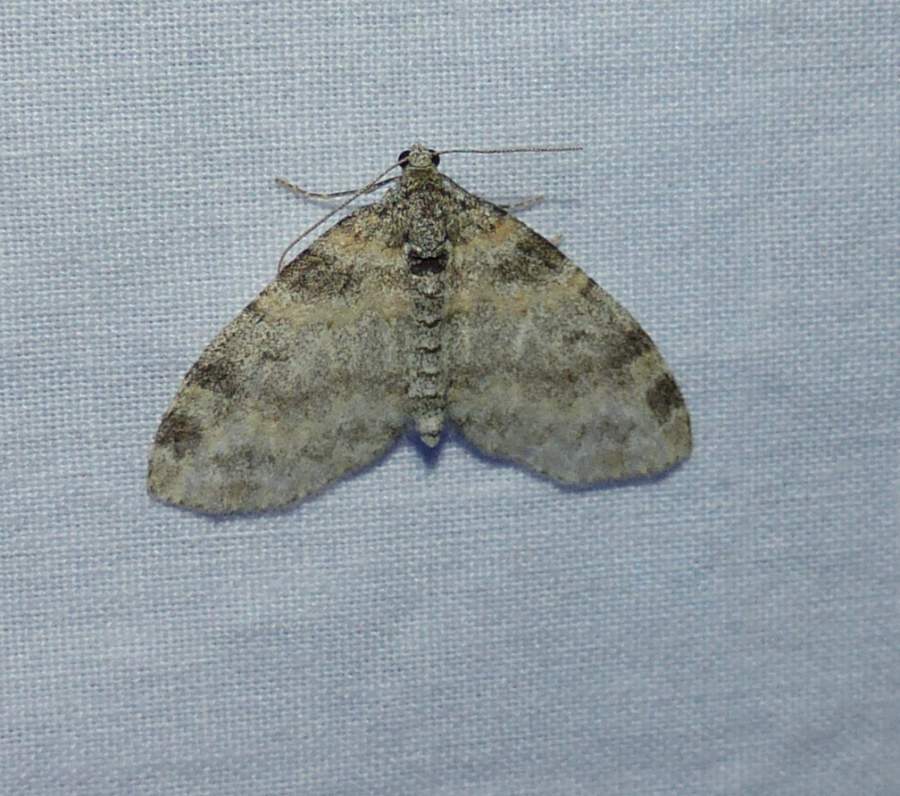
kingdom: Animalia
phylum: Arthropoda
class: Insecta
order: Lepidoptera
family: Geometridae
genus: Lobophora
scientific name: Lobophora nivigerata
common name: Powdered bigwing
